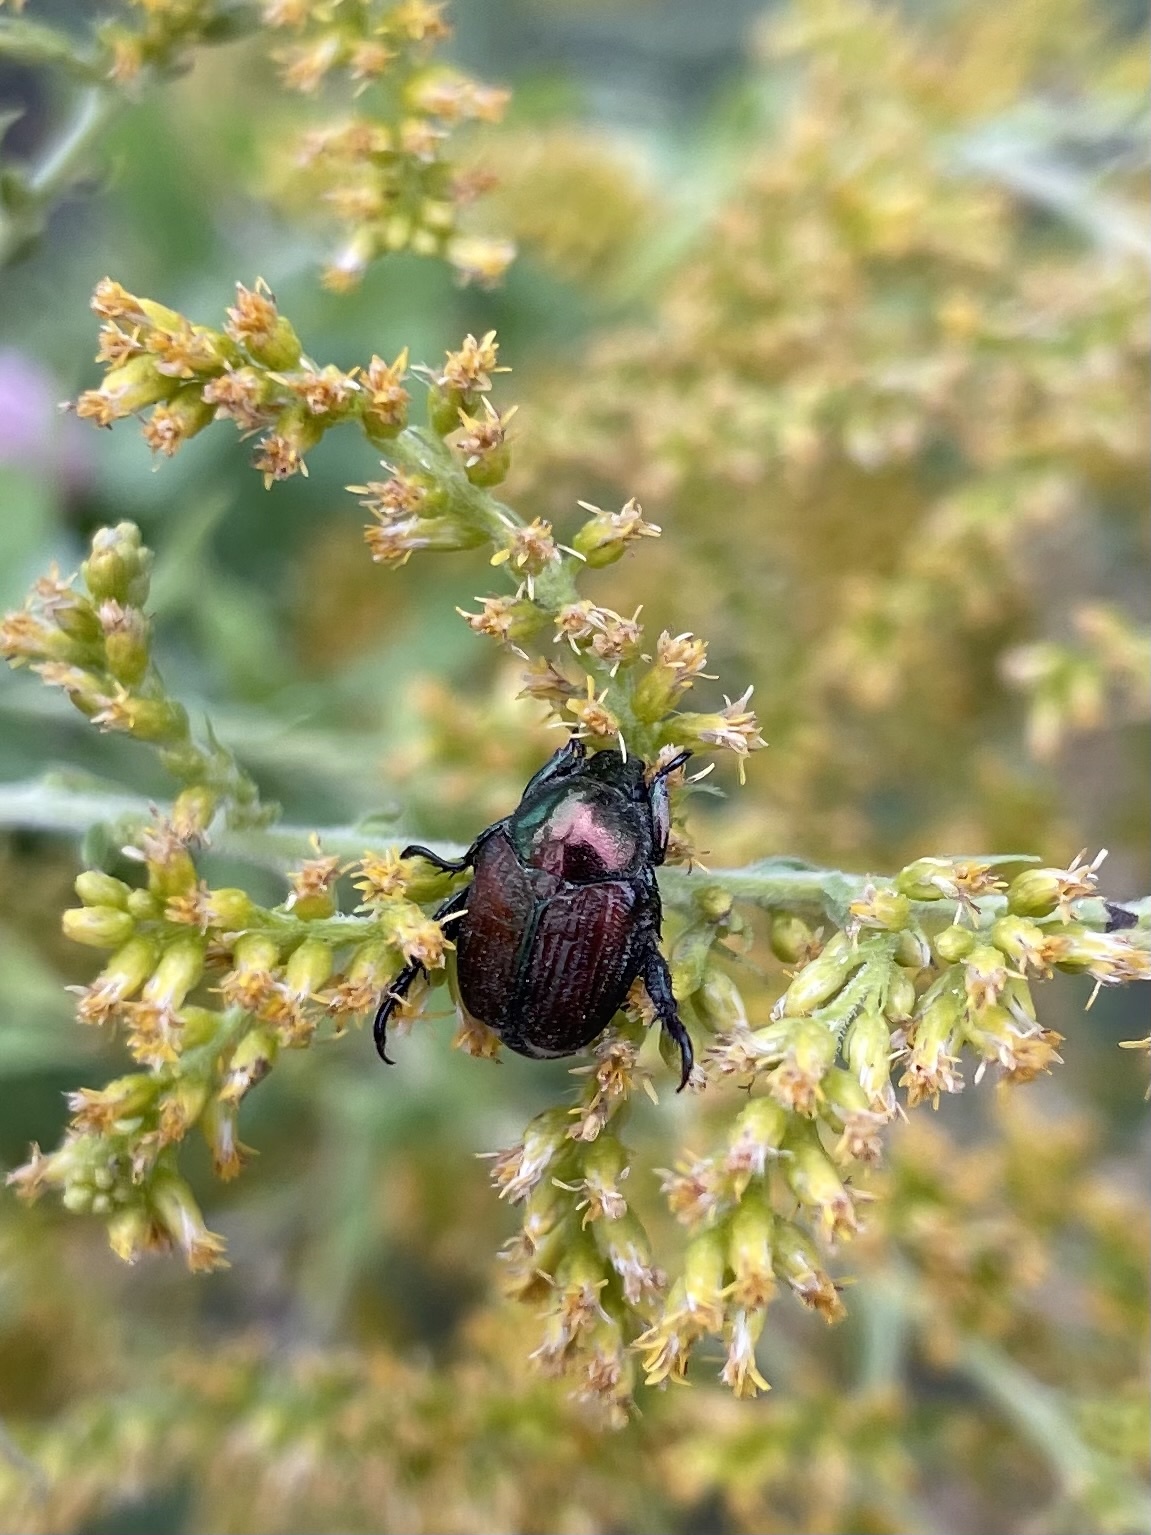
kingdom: Animalia
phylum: Arthropoda
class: Insecta
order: Coleoptera
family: Scarabaeidae
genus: Popillia
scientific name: Popillia japonica
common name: Japanese beetle
